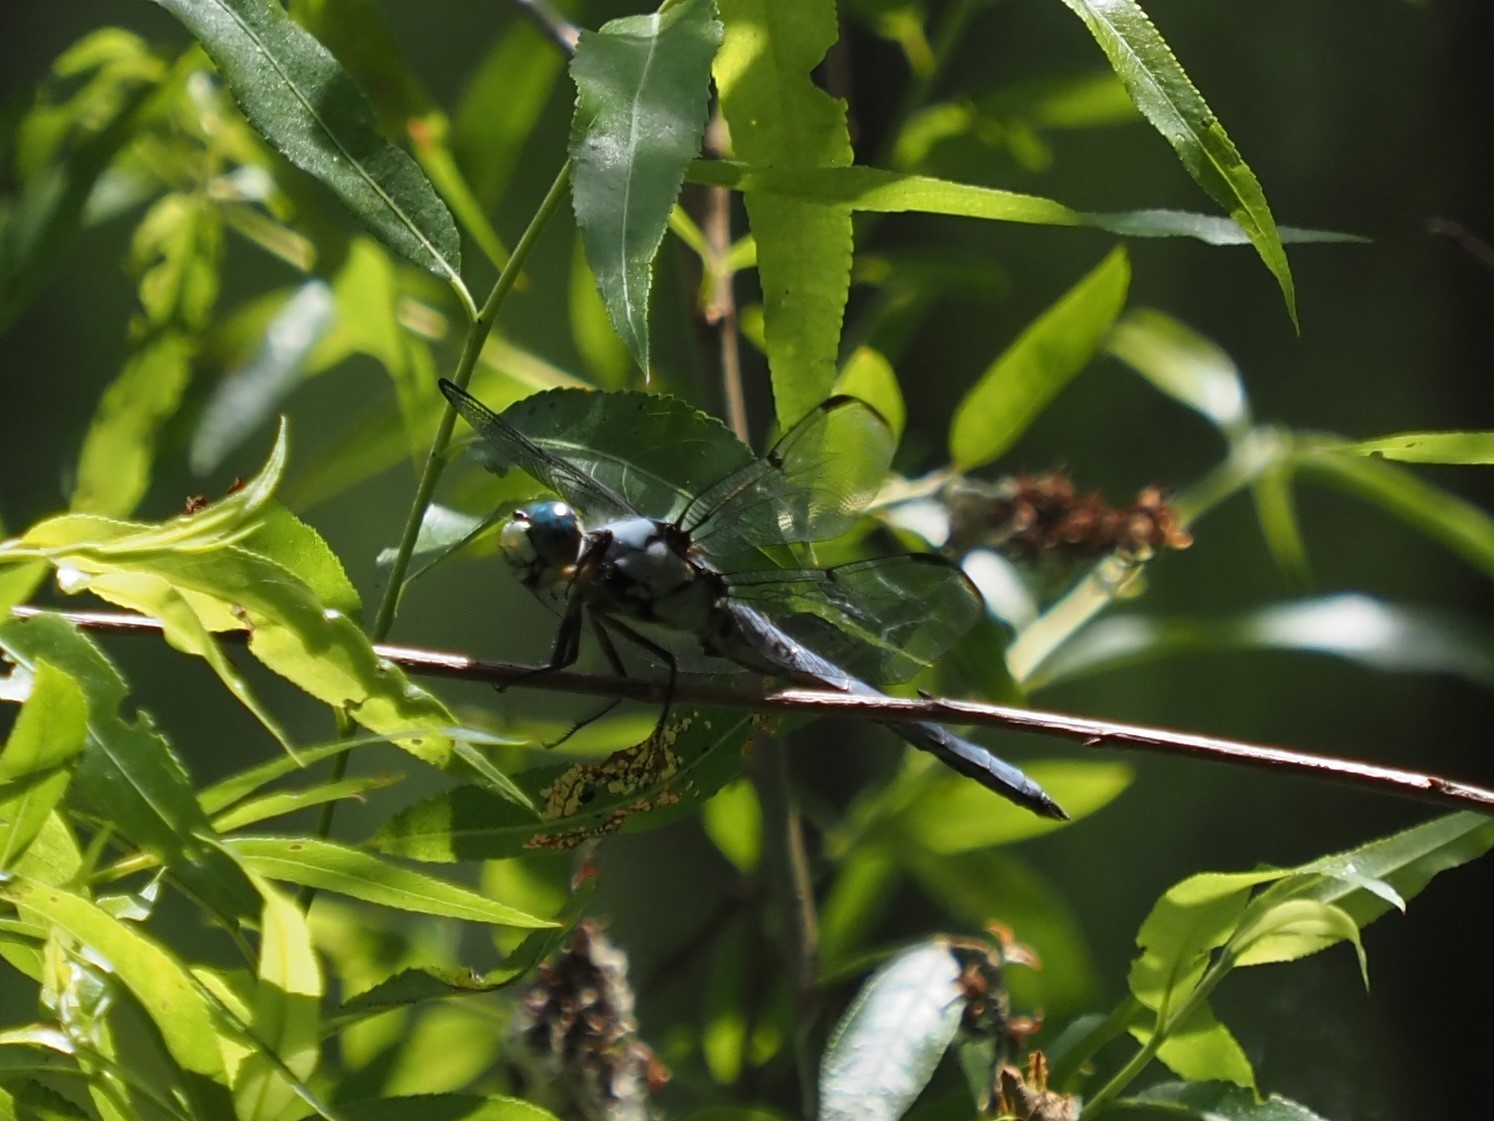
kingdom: Animalia
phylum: Arthropoda
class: Insecta
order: Odonata
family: Libellulidae
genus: Libellula
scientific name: Libellula vibrans
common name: Great blue skimmer
